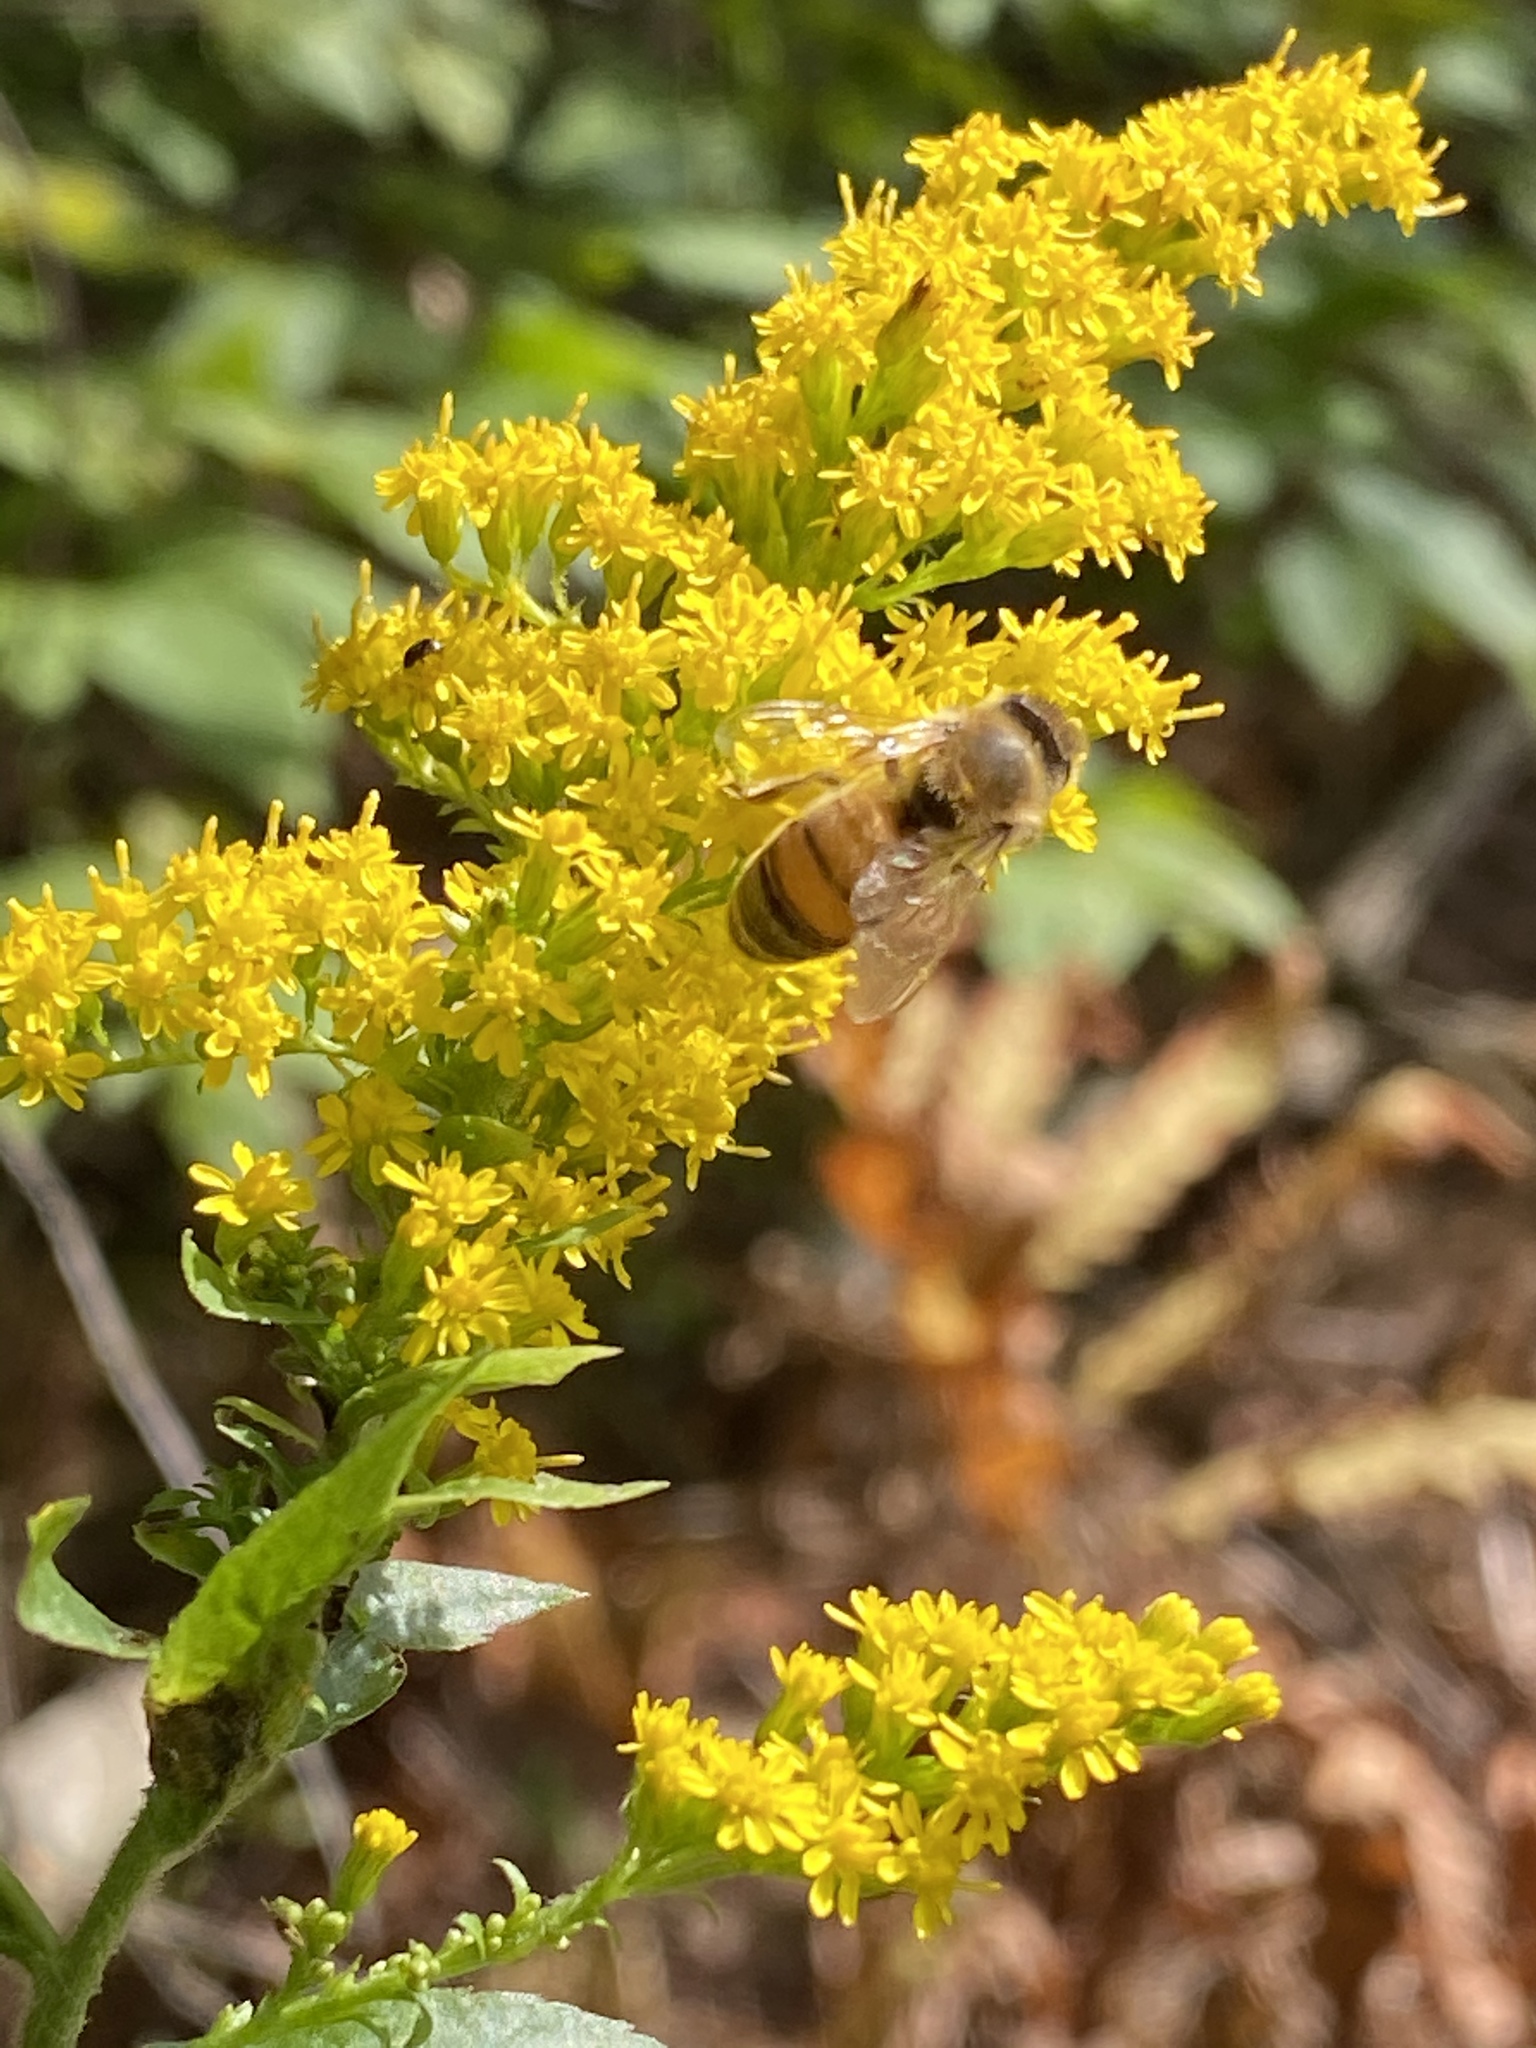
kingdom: Animalia
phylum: Arthropoda
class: Insecta
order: Hymenoptera
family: Apidae
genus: Apis
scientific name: Apis mellifera
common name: Honey bee
